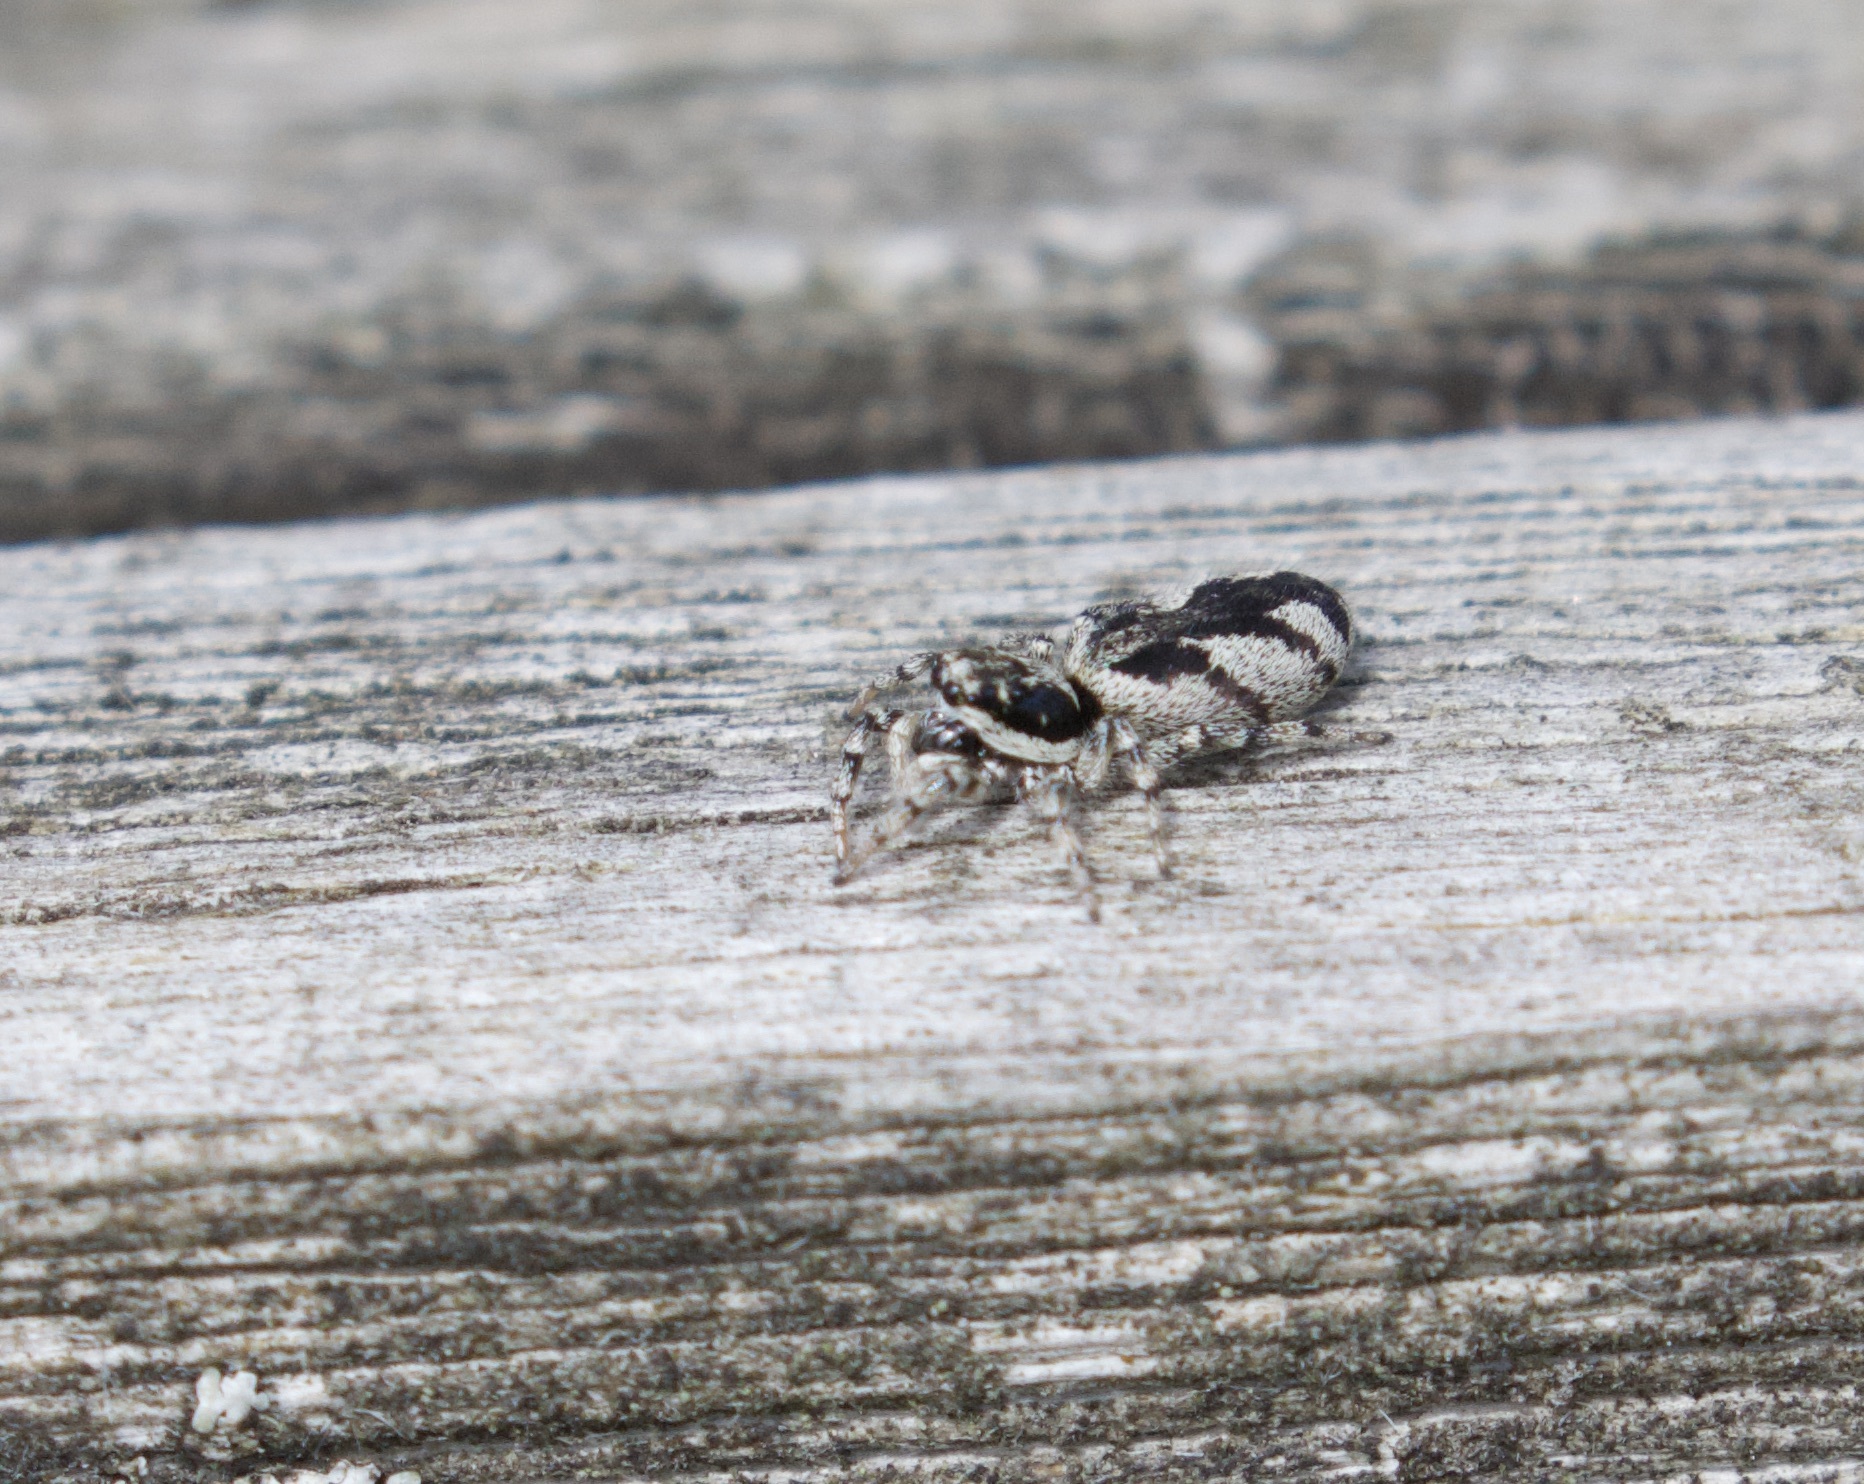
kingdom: Animalia
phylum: Arthropoda
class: Arachnida
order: Araneae
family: Salticidae
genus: Salticus
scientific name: Salticus cingulatus
